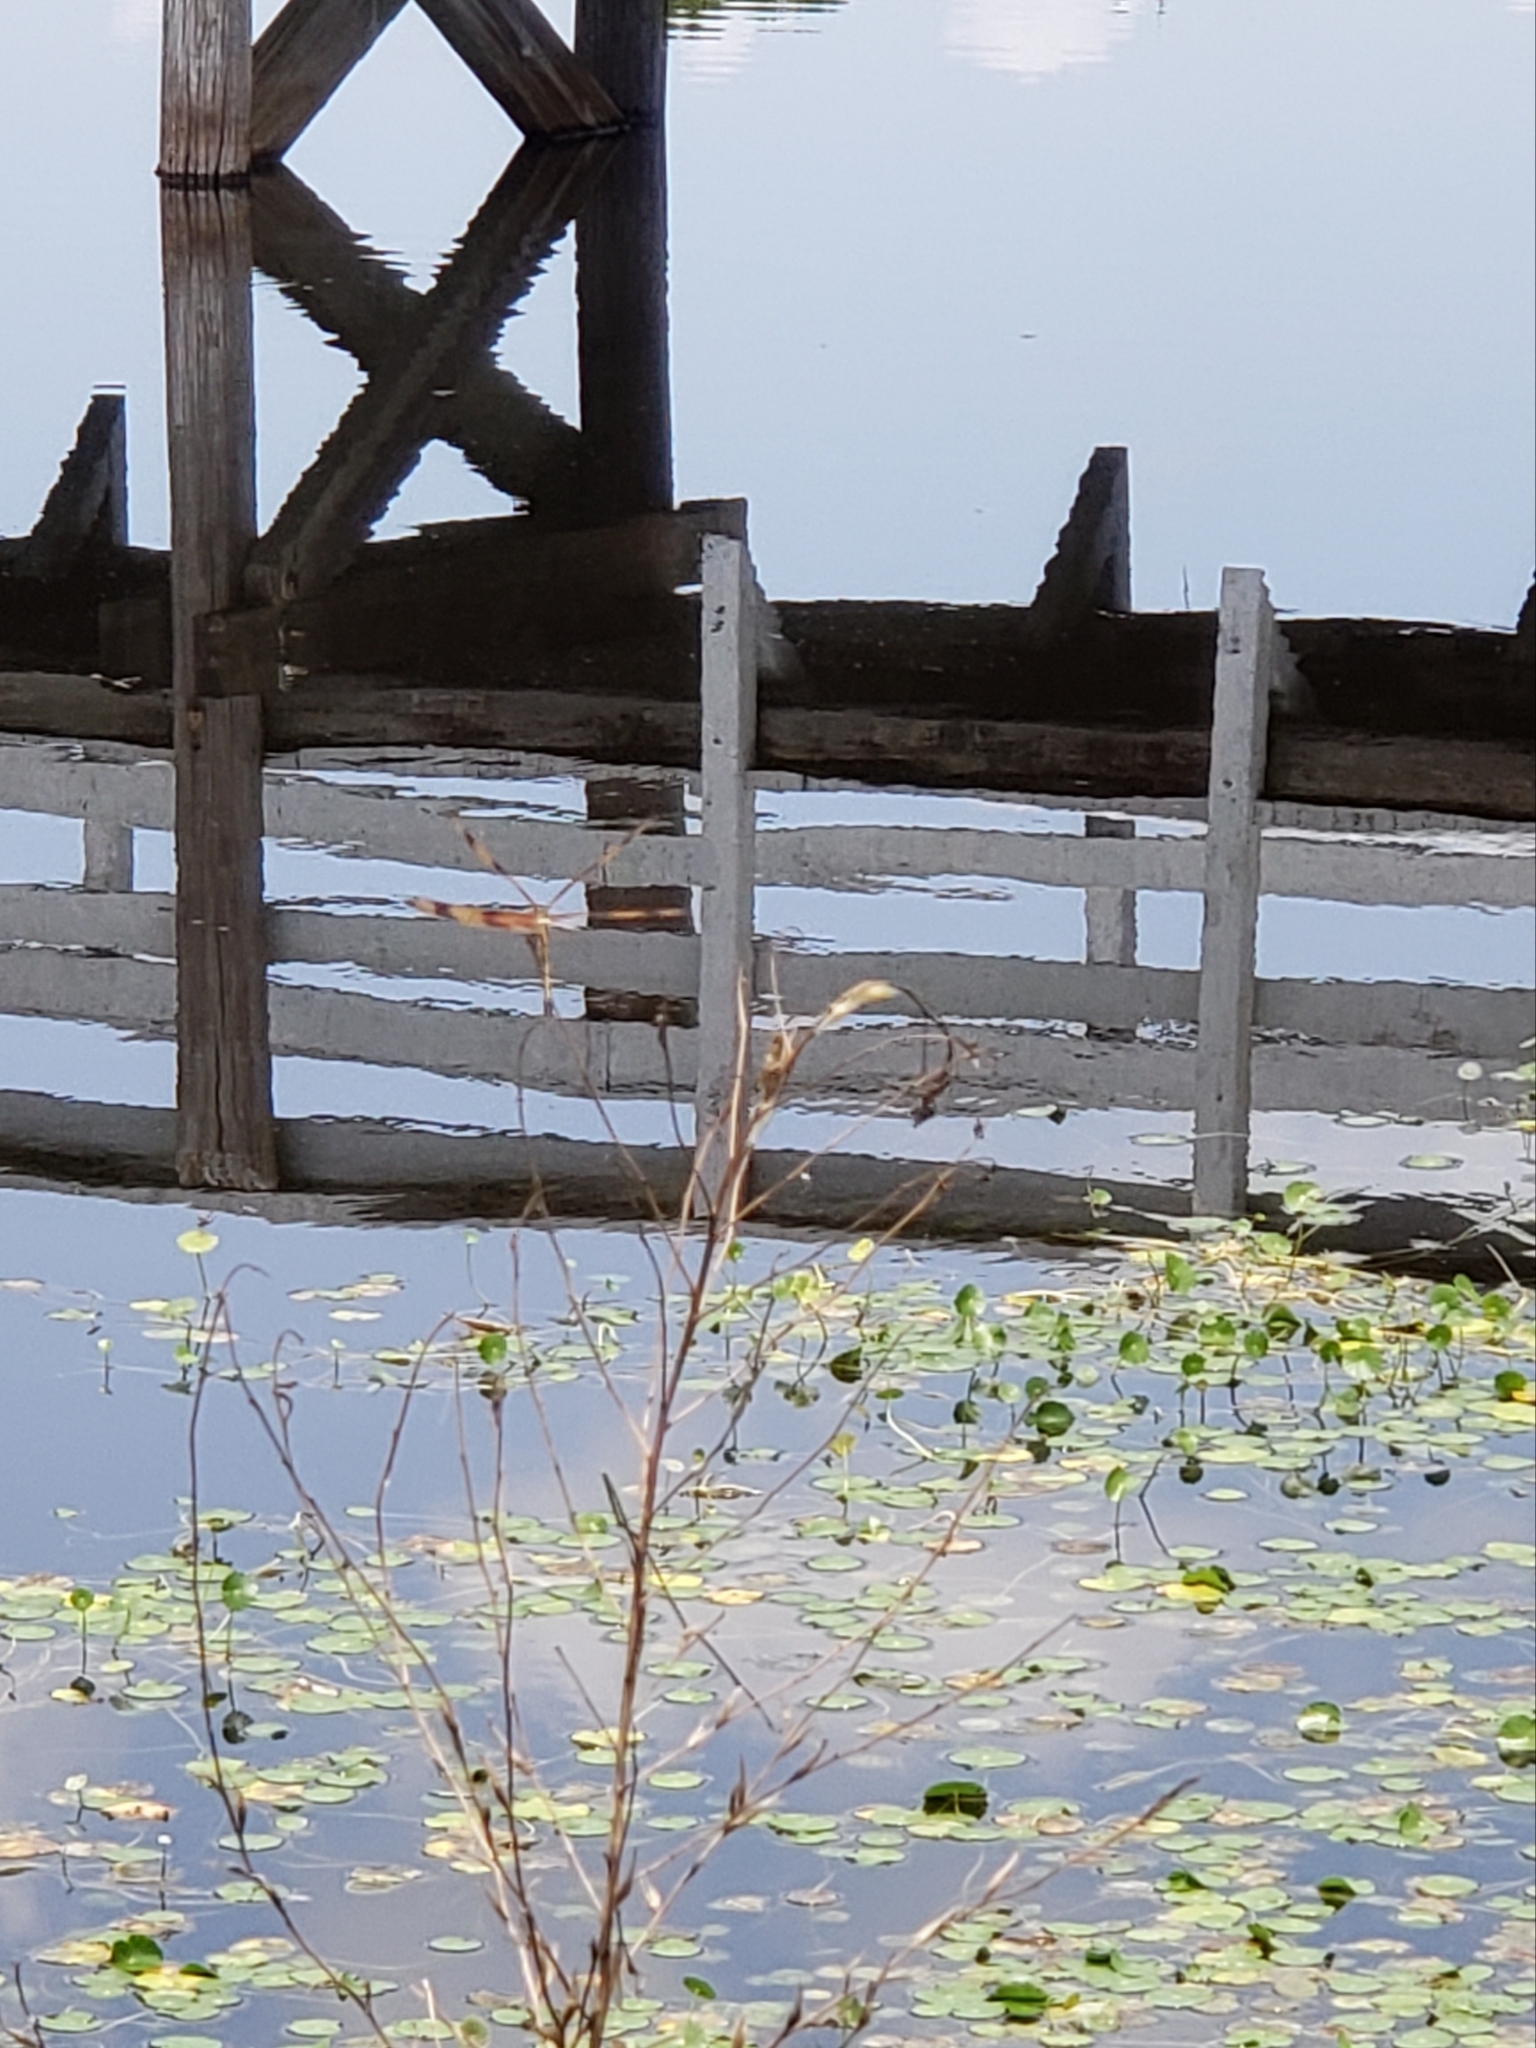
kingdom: Animalia
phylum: Arthropoda
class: Insecta
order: Odonata
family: Libellulidae
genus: Celithemis
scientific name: Celithemis eponina
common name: Halloween pennant
